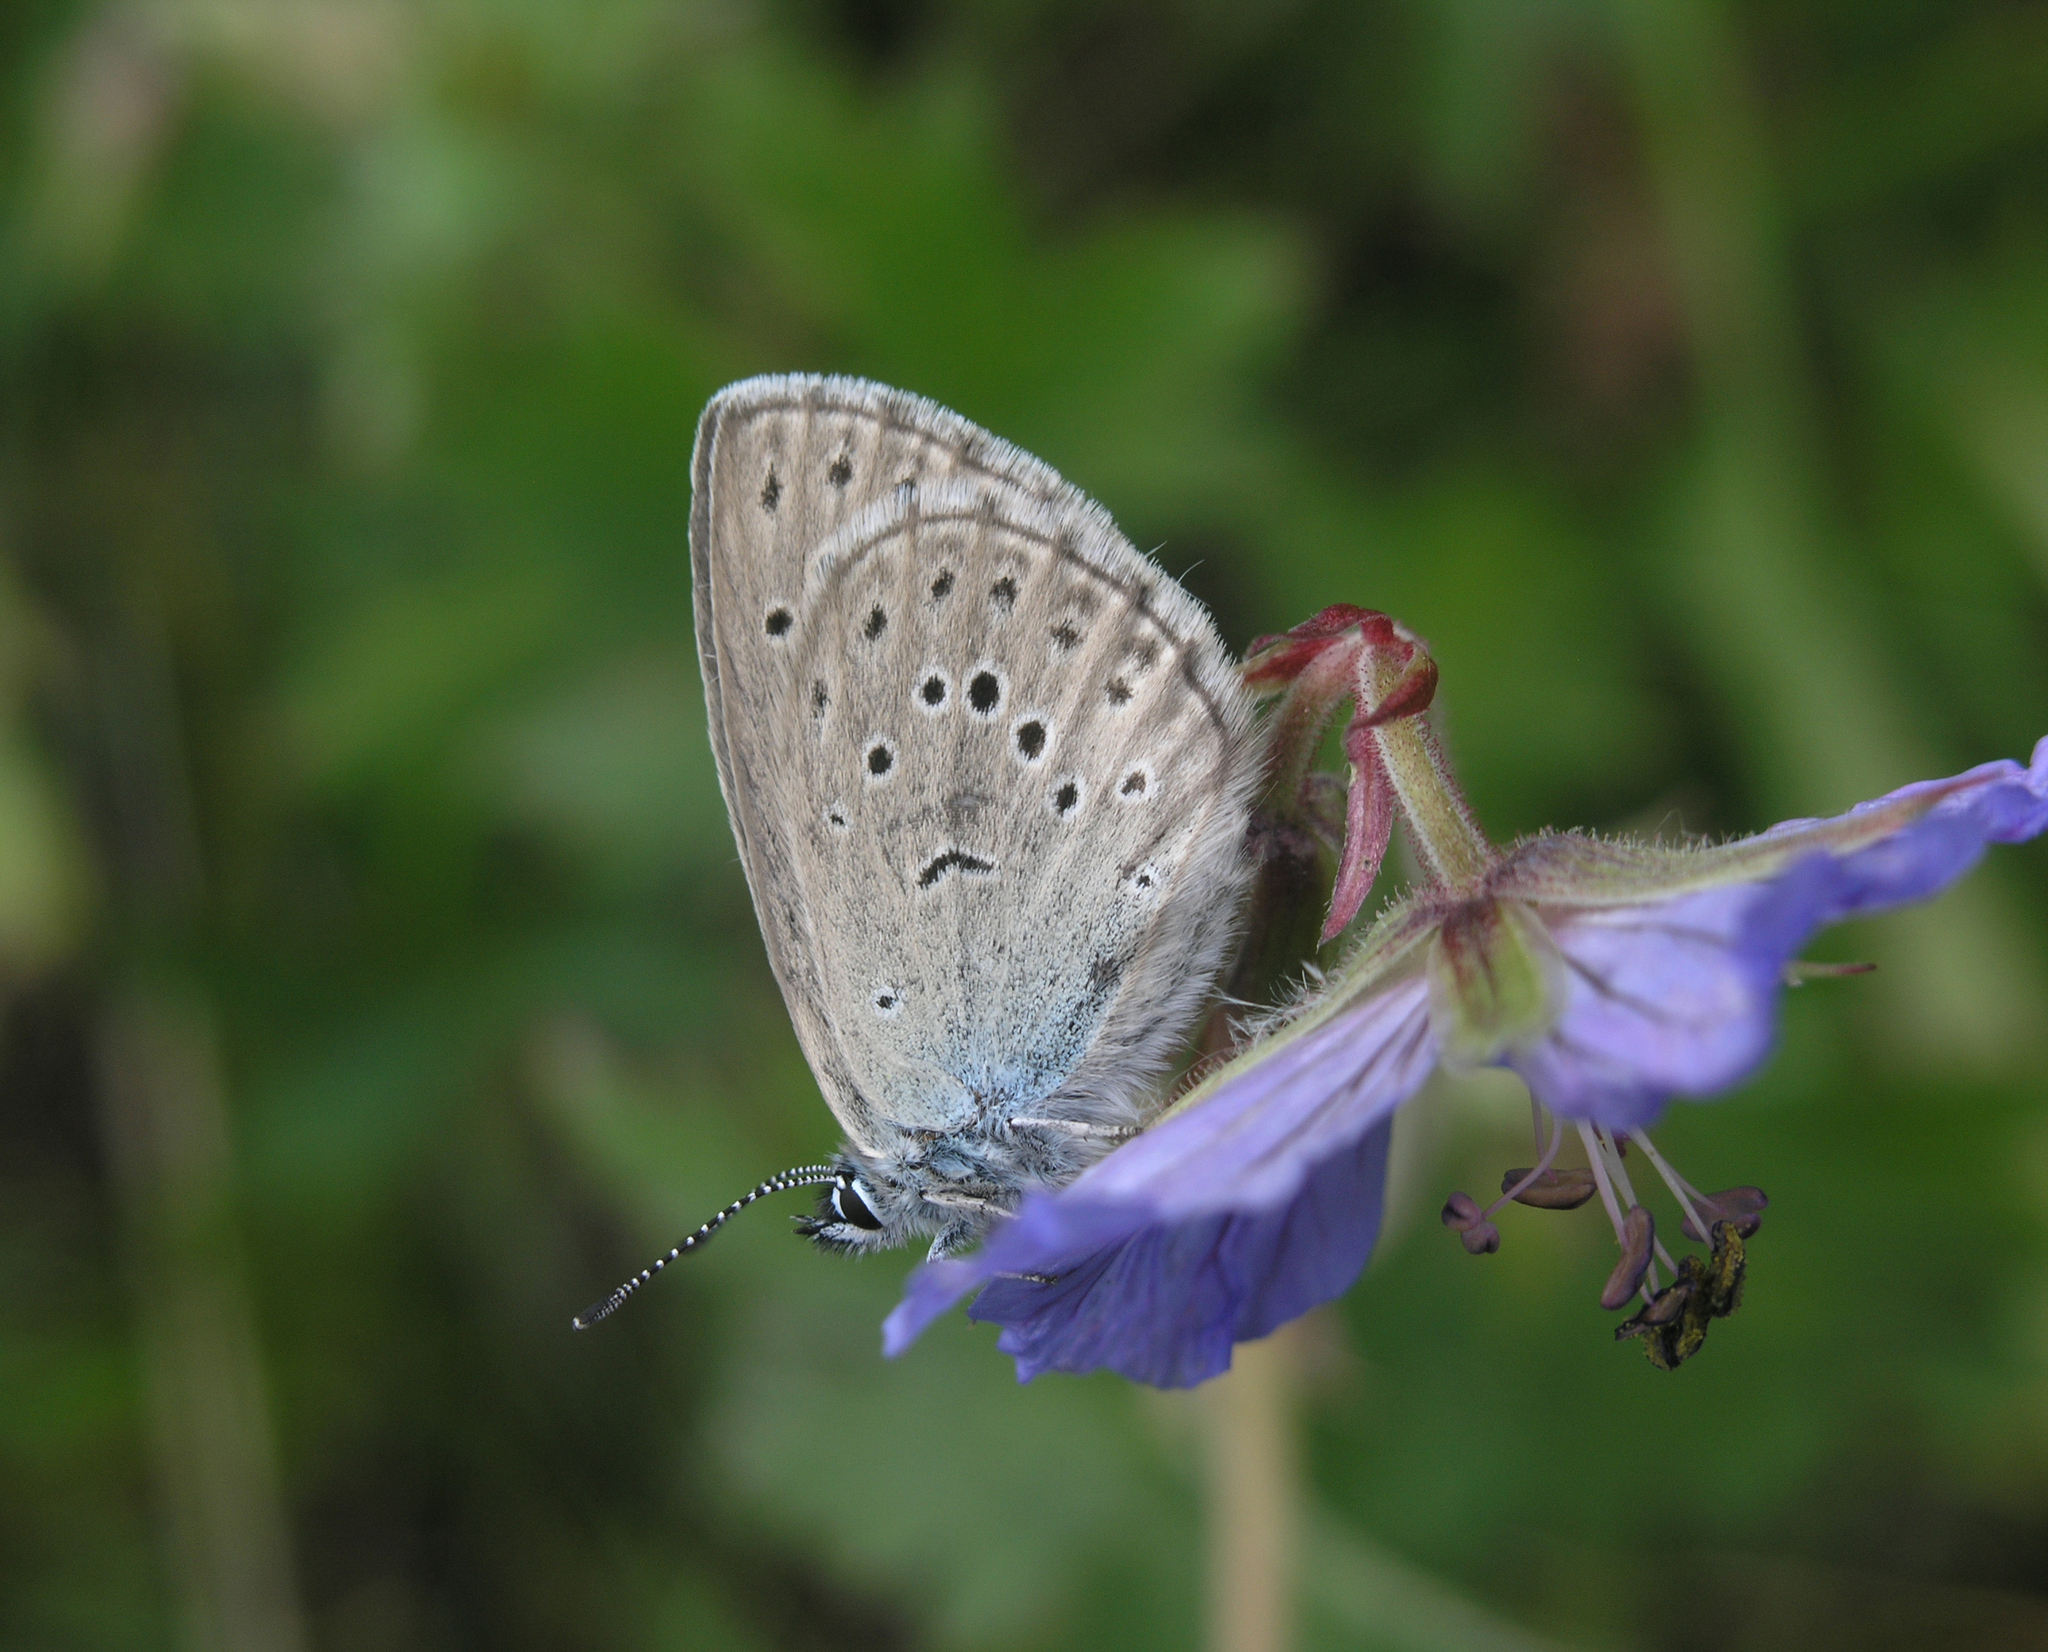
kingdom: Animalia
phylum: Arthropoda
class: Insecta
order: Lepidoptera
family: Lycaenidae
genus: Maculinea
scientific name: Maculinea alcon
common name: Alcon blue
